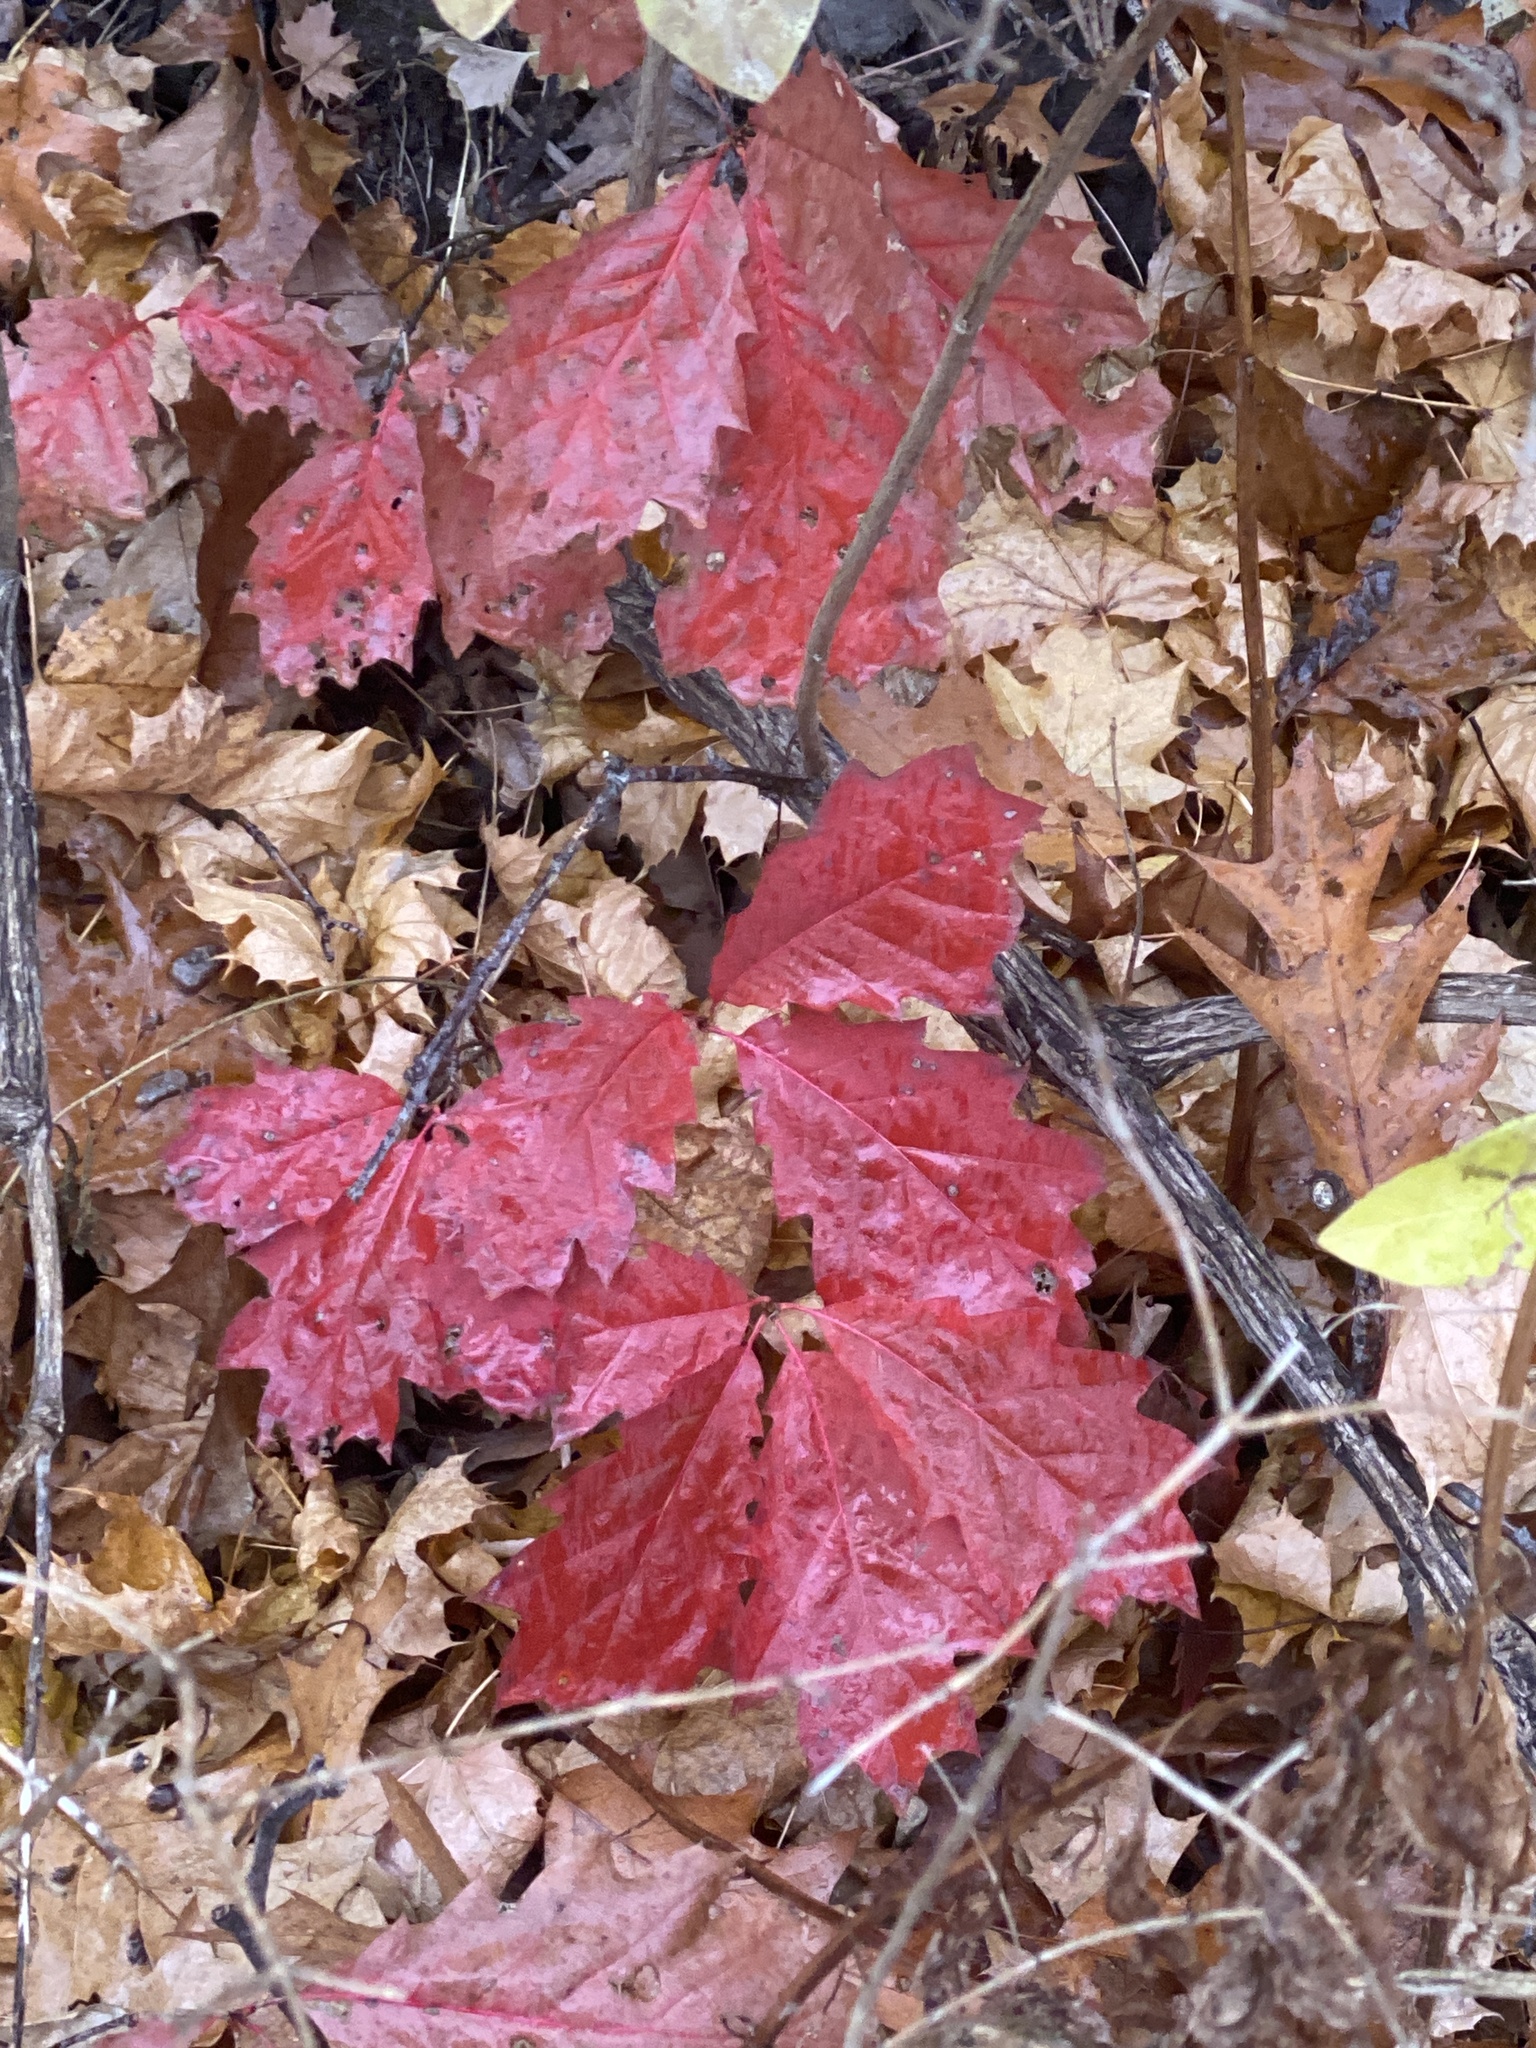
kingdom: Plantae
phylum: Tracheophyta
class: Magnoliopsida
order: Fagales
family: Fagaceae
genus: Quercus
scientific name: Quercus rubra
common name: Red oak
